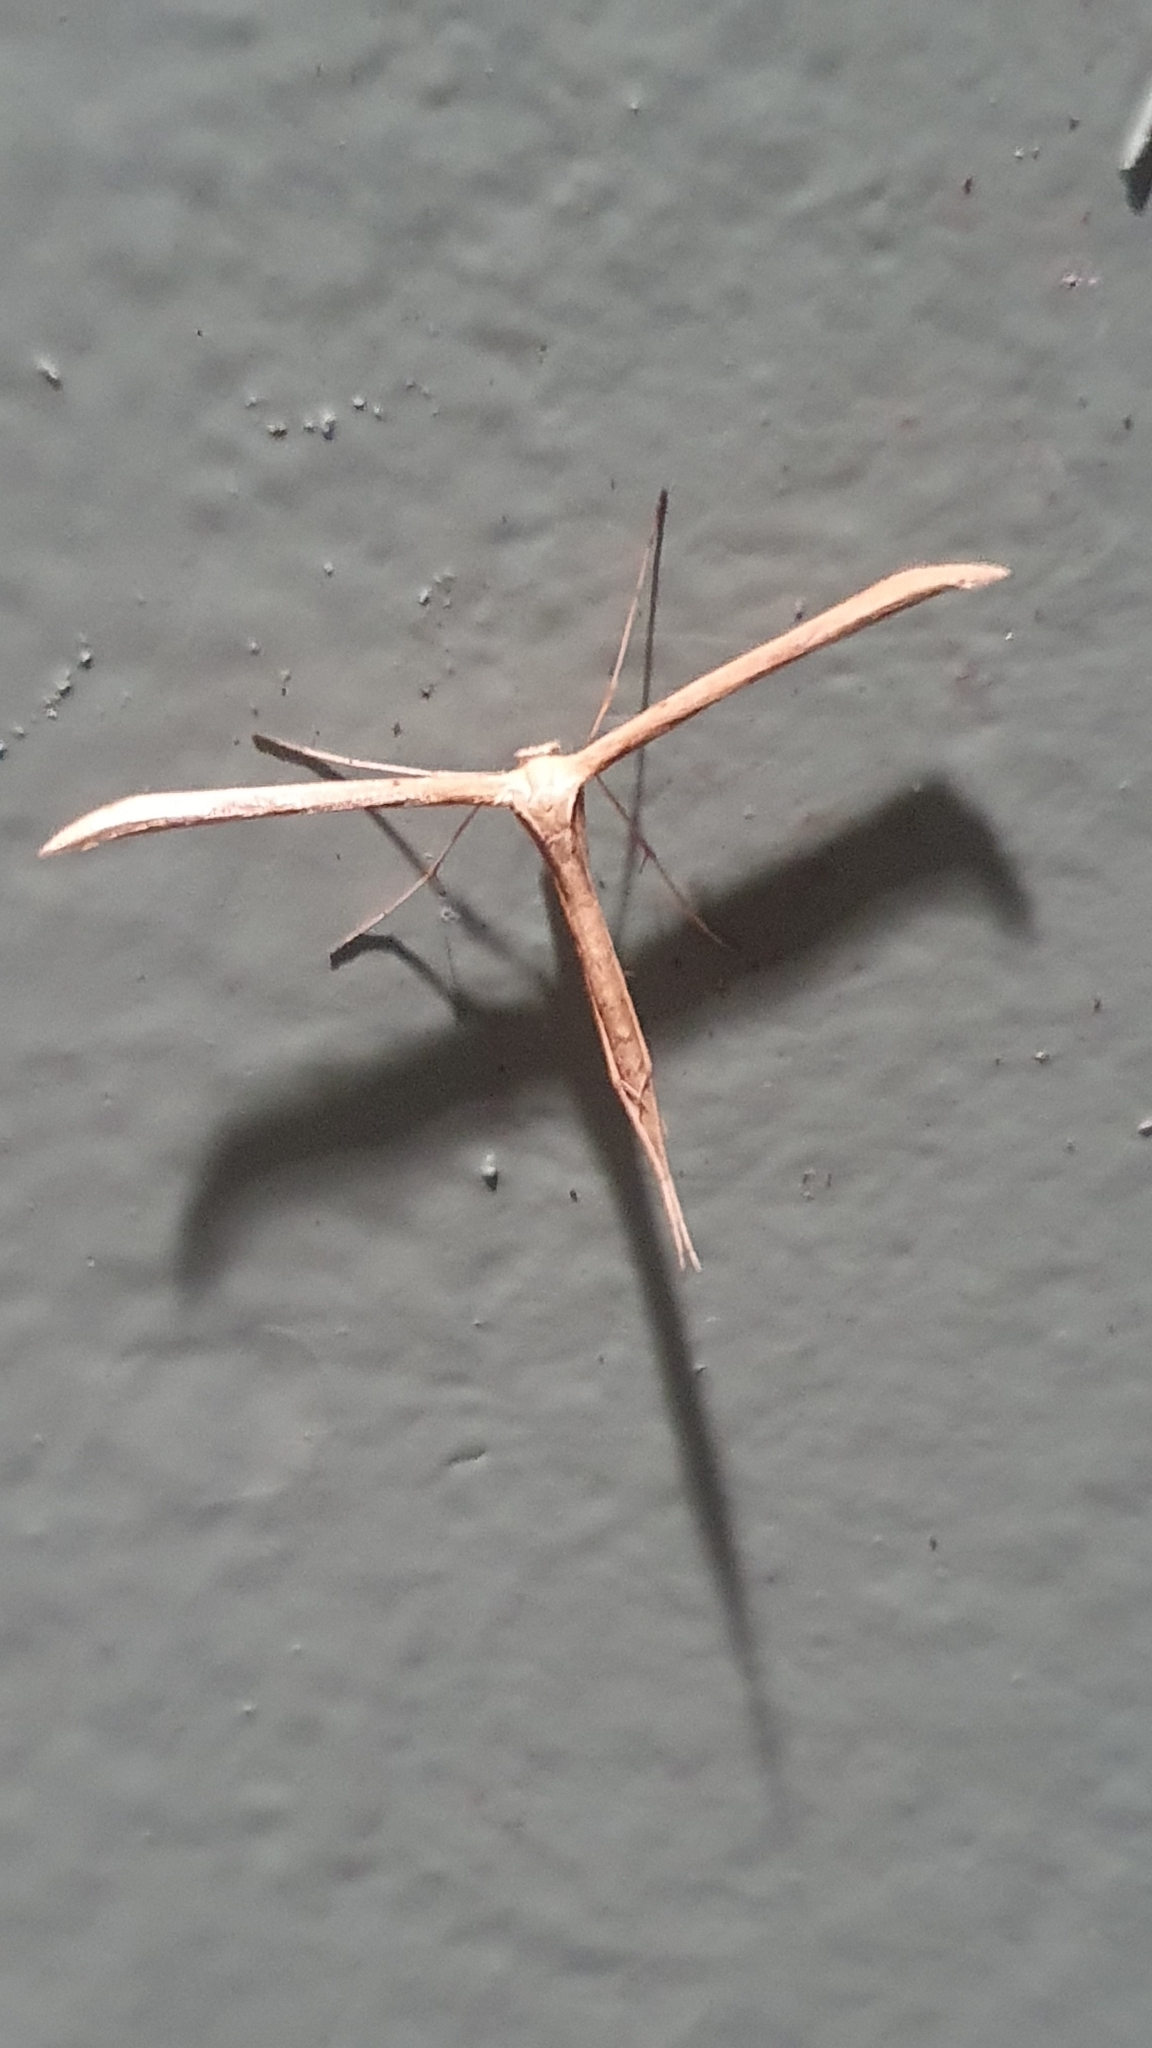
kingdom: Animalia
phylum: Arthropoda
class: Insecta
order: Lepidoptera
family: Pterophoridae
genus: Emmelina
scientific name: Emmelina monodactyla
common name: Common plume
